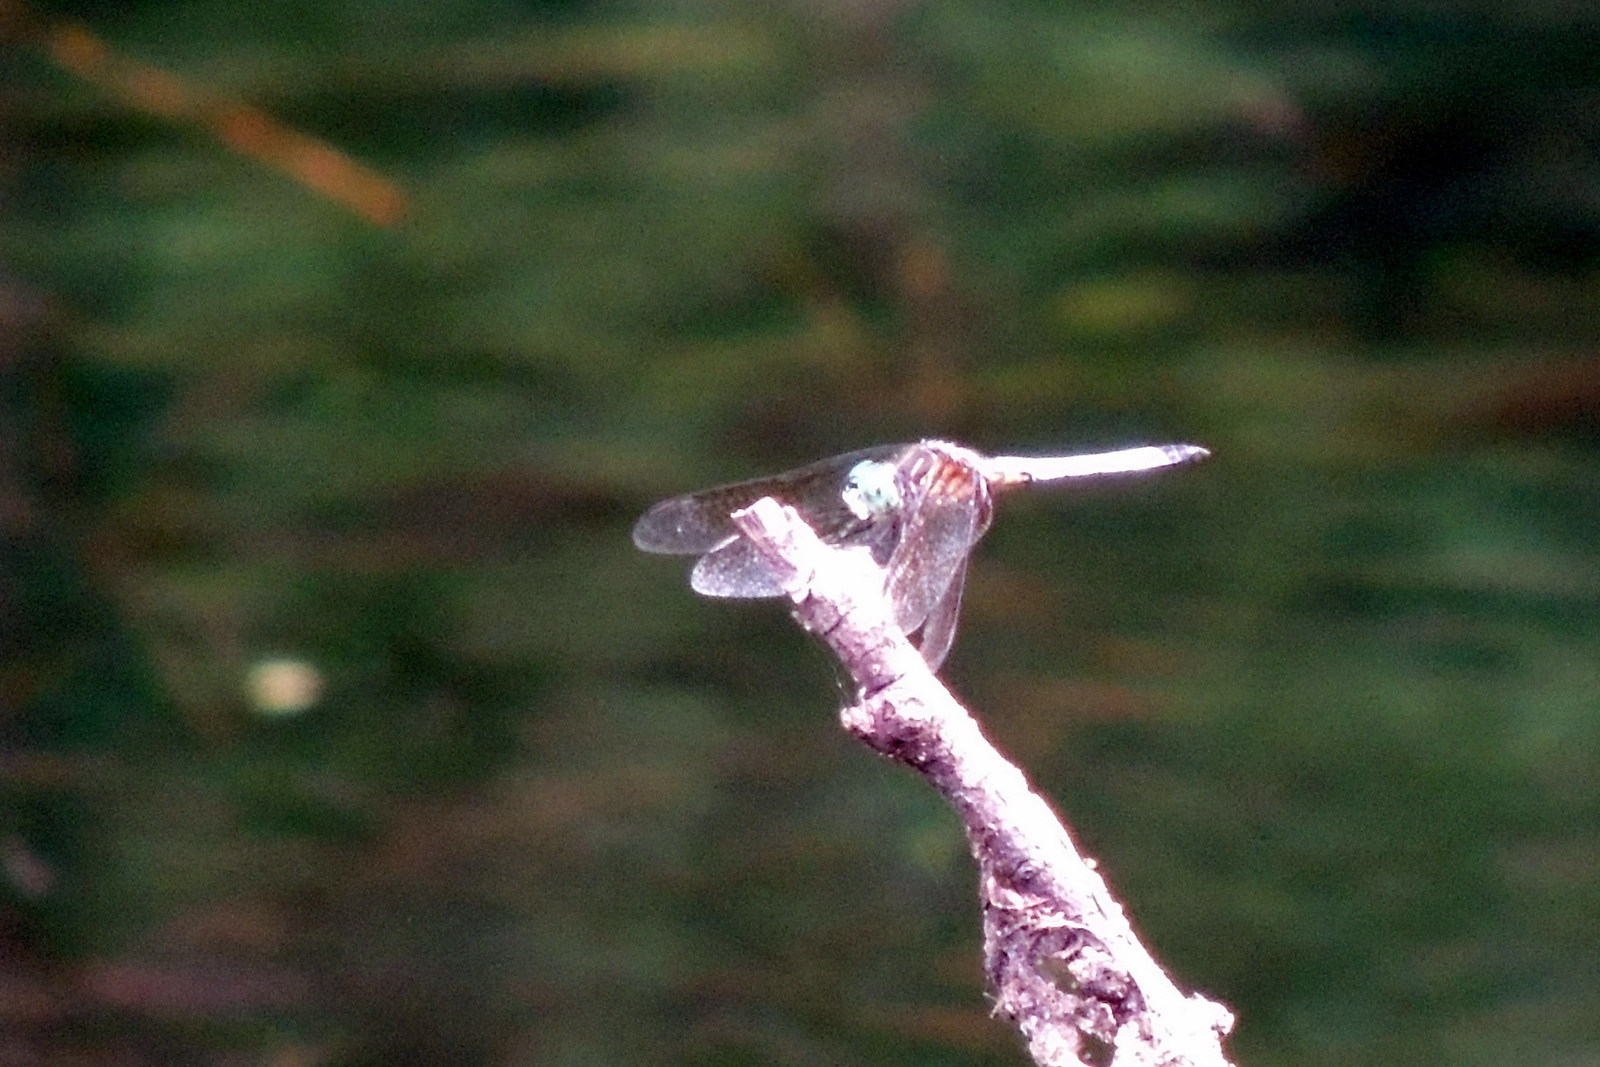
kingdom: Animalia
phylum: Arthropoda
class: Insecta
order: Odonata
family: Libellulidae
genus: Pachydiplax
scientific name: Pachydiplax longipennis
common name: Blue dasher
